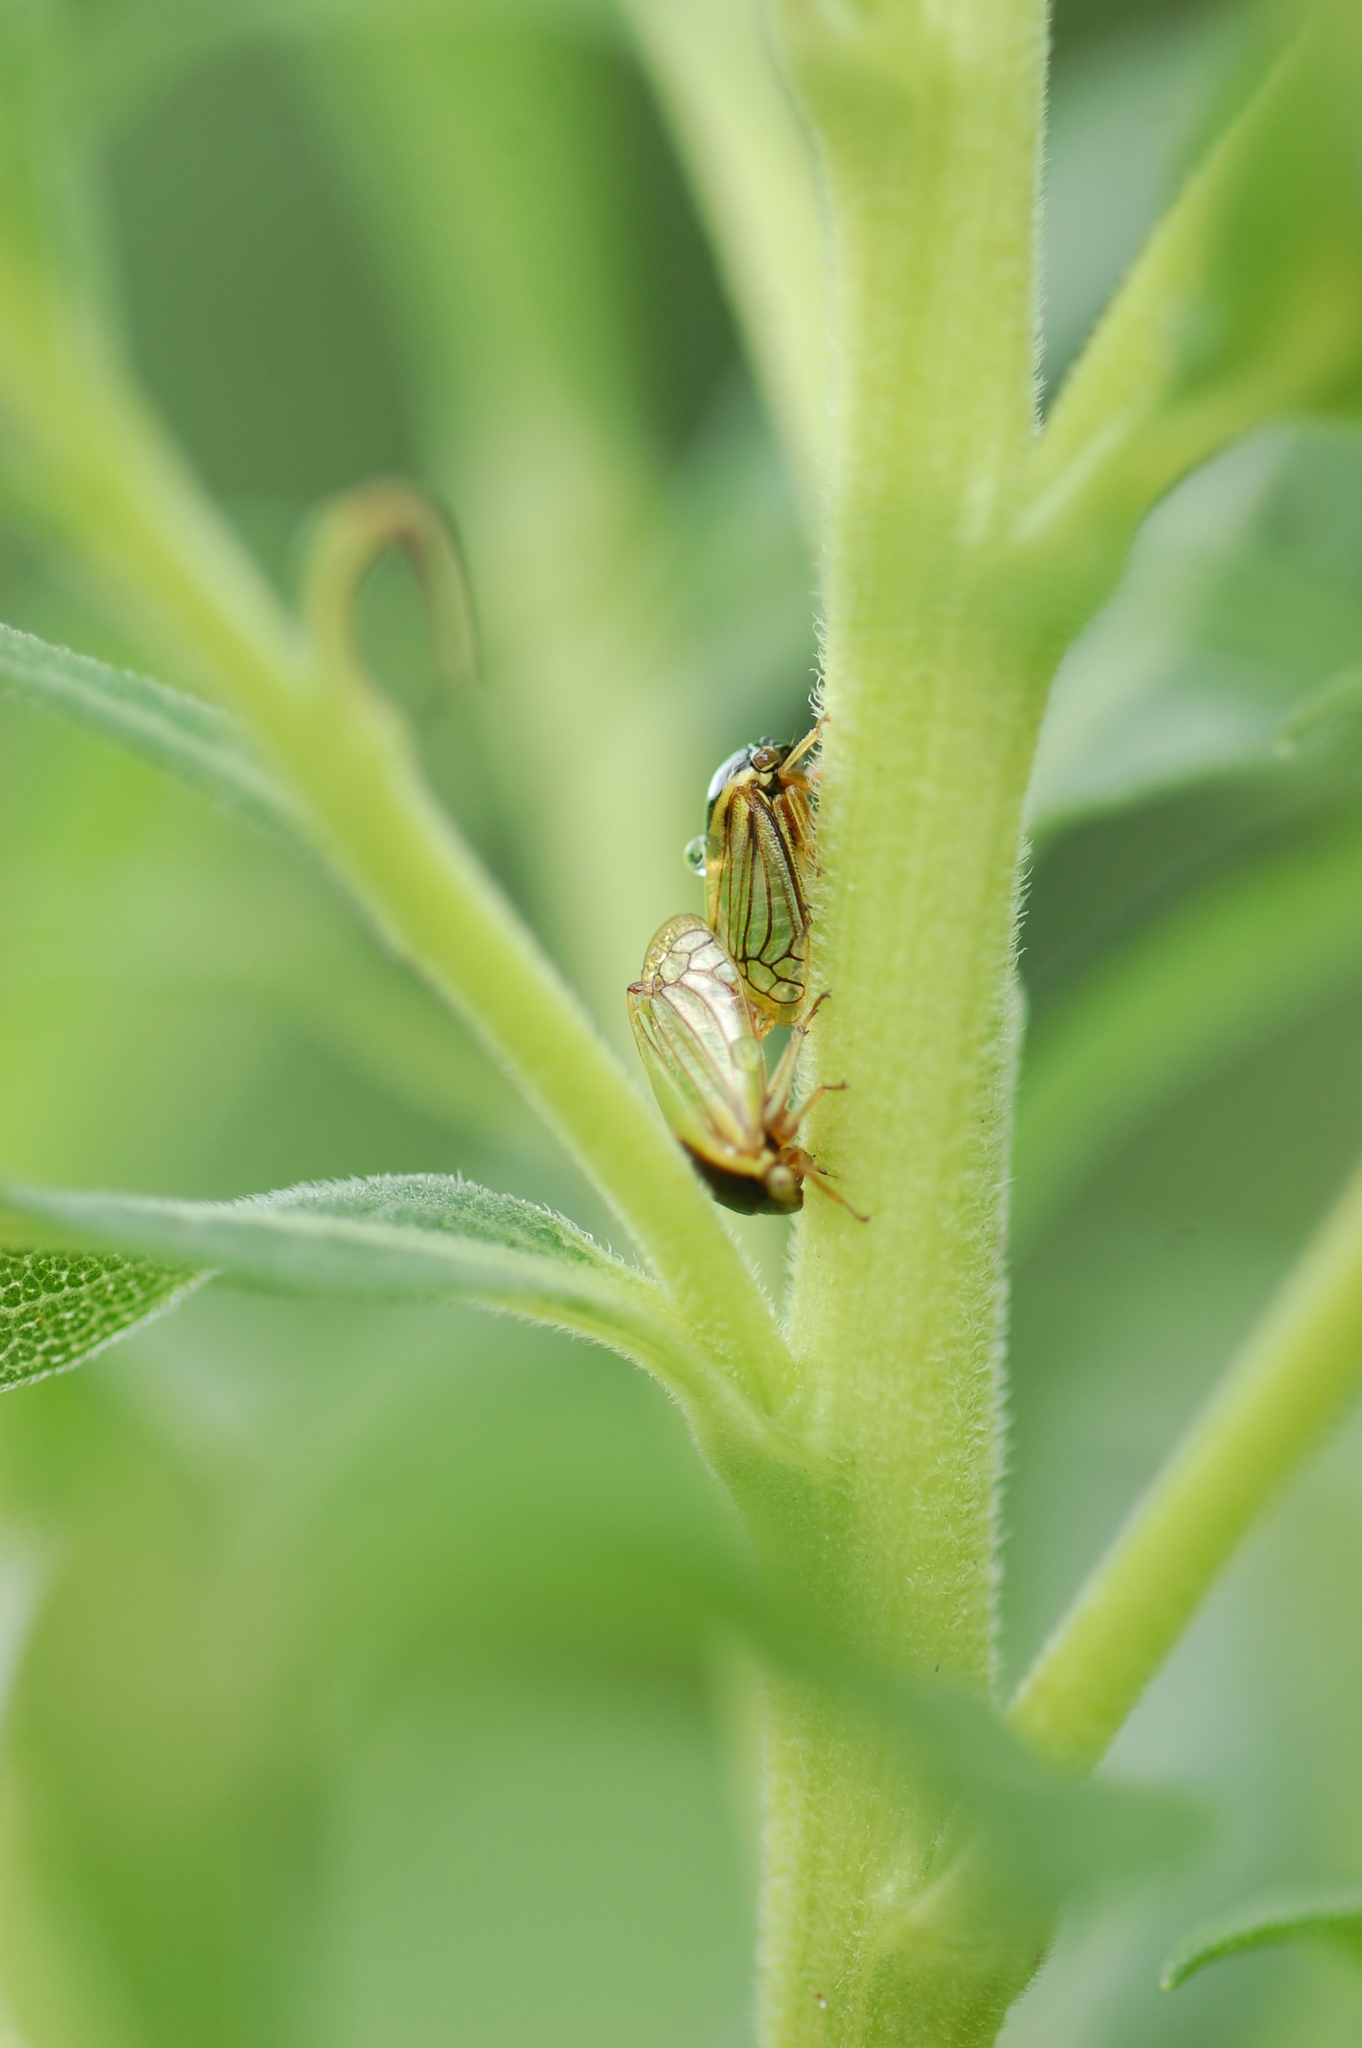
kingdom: Animalia
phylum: Arthropoda
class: Insecta
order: Hemiptera
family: Membracidae
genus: Acutalis
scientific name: Acutalis tartarea
